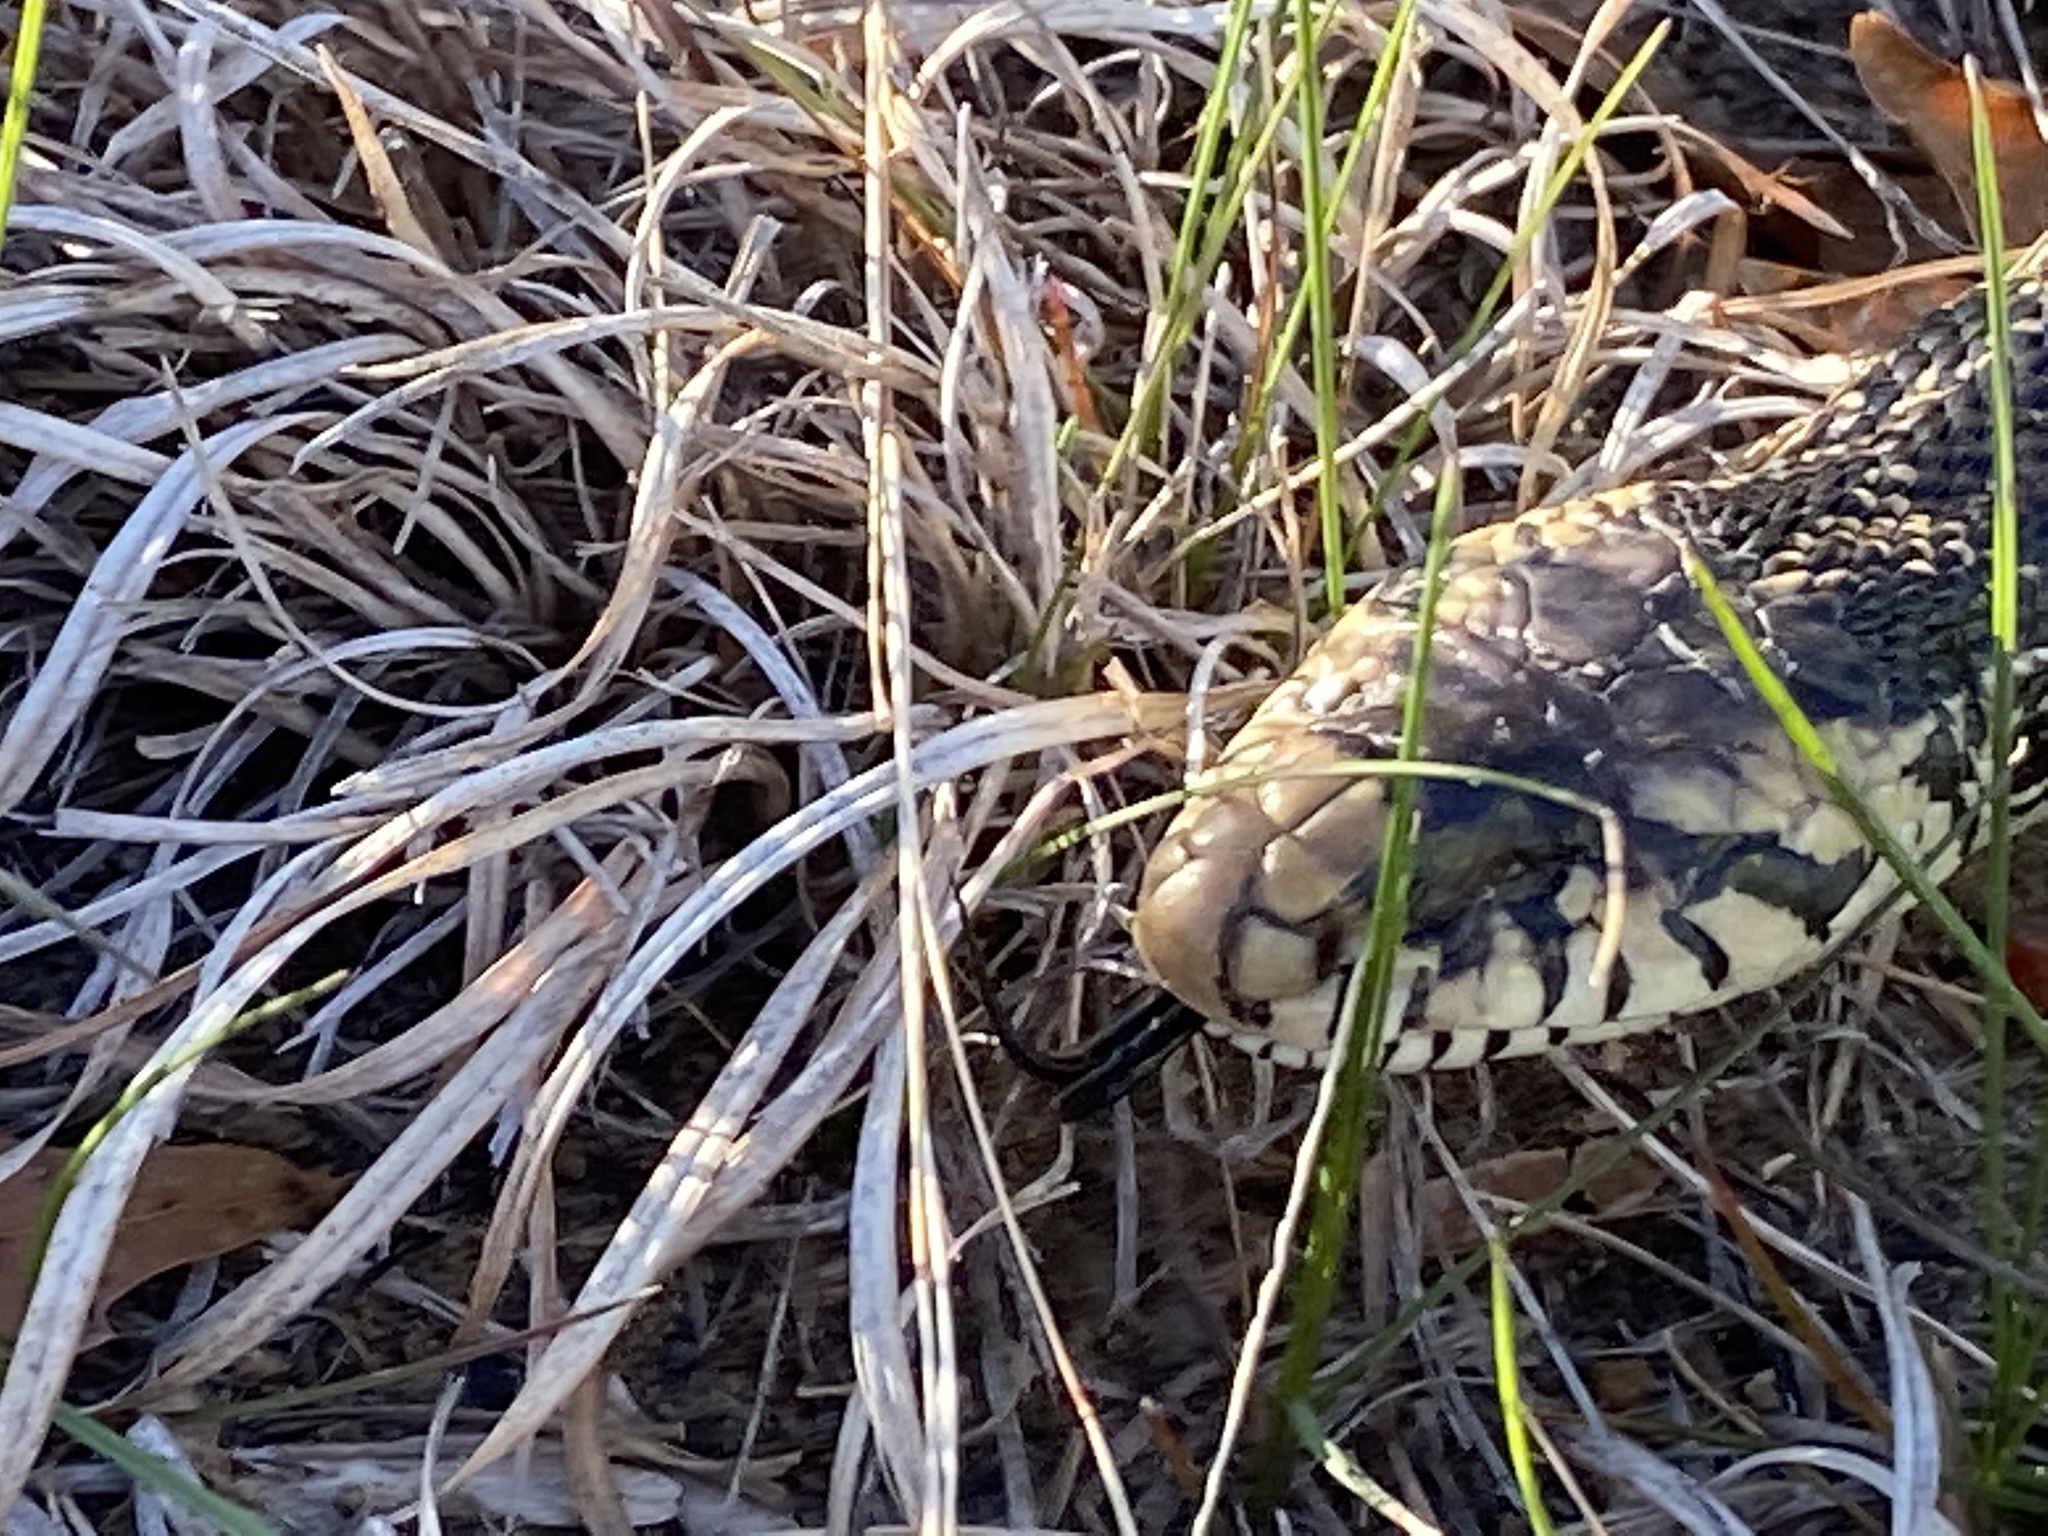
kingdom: Animalia
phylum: Chordata
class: Squamata
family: Colubridae
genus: Pituophis
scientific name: Pituophis catenifer
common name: Gopher snake
